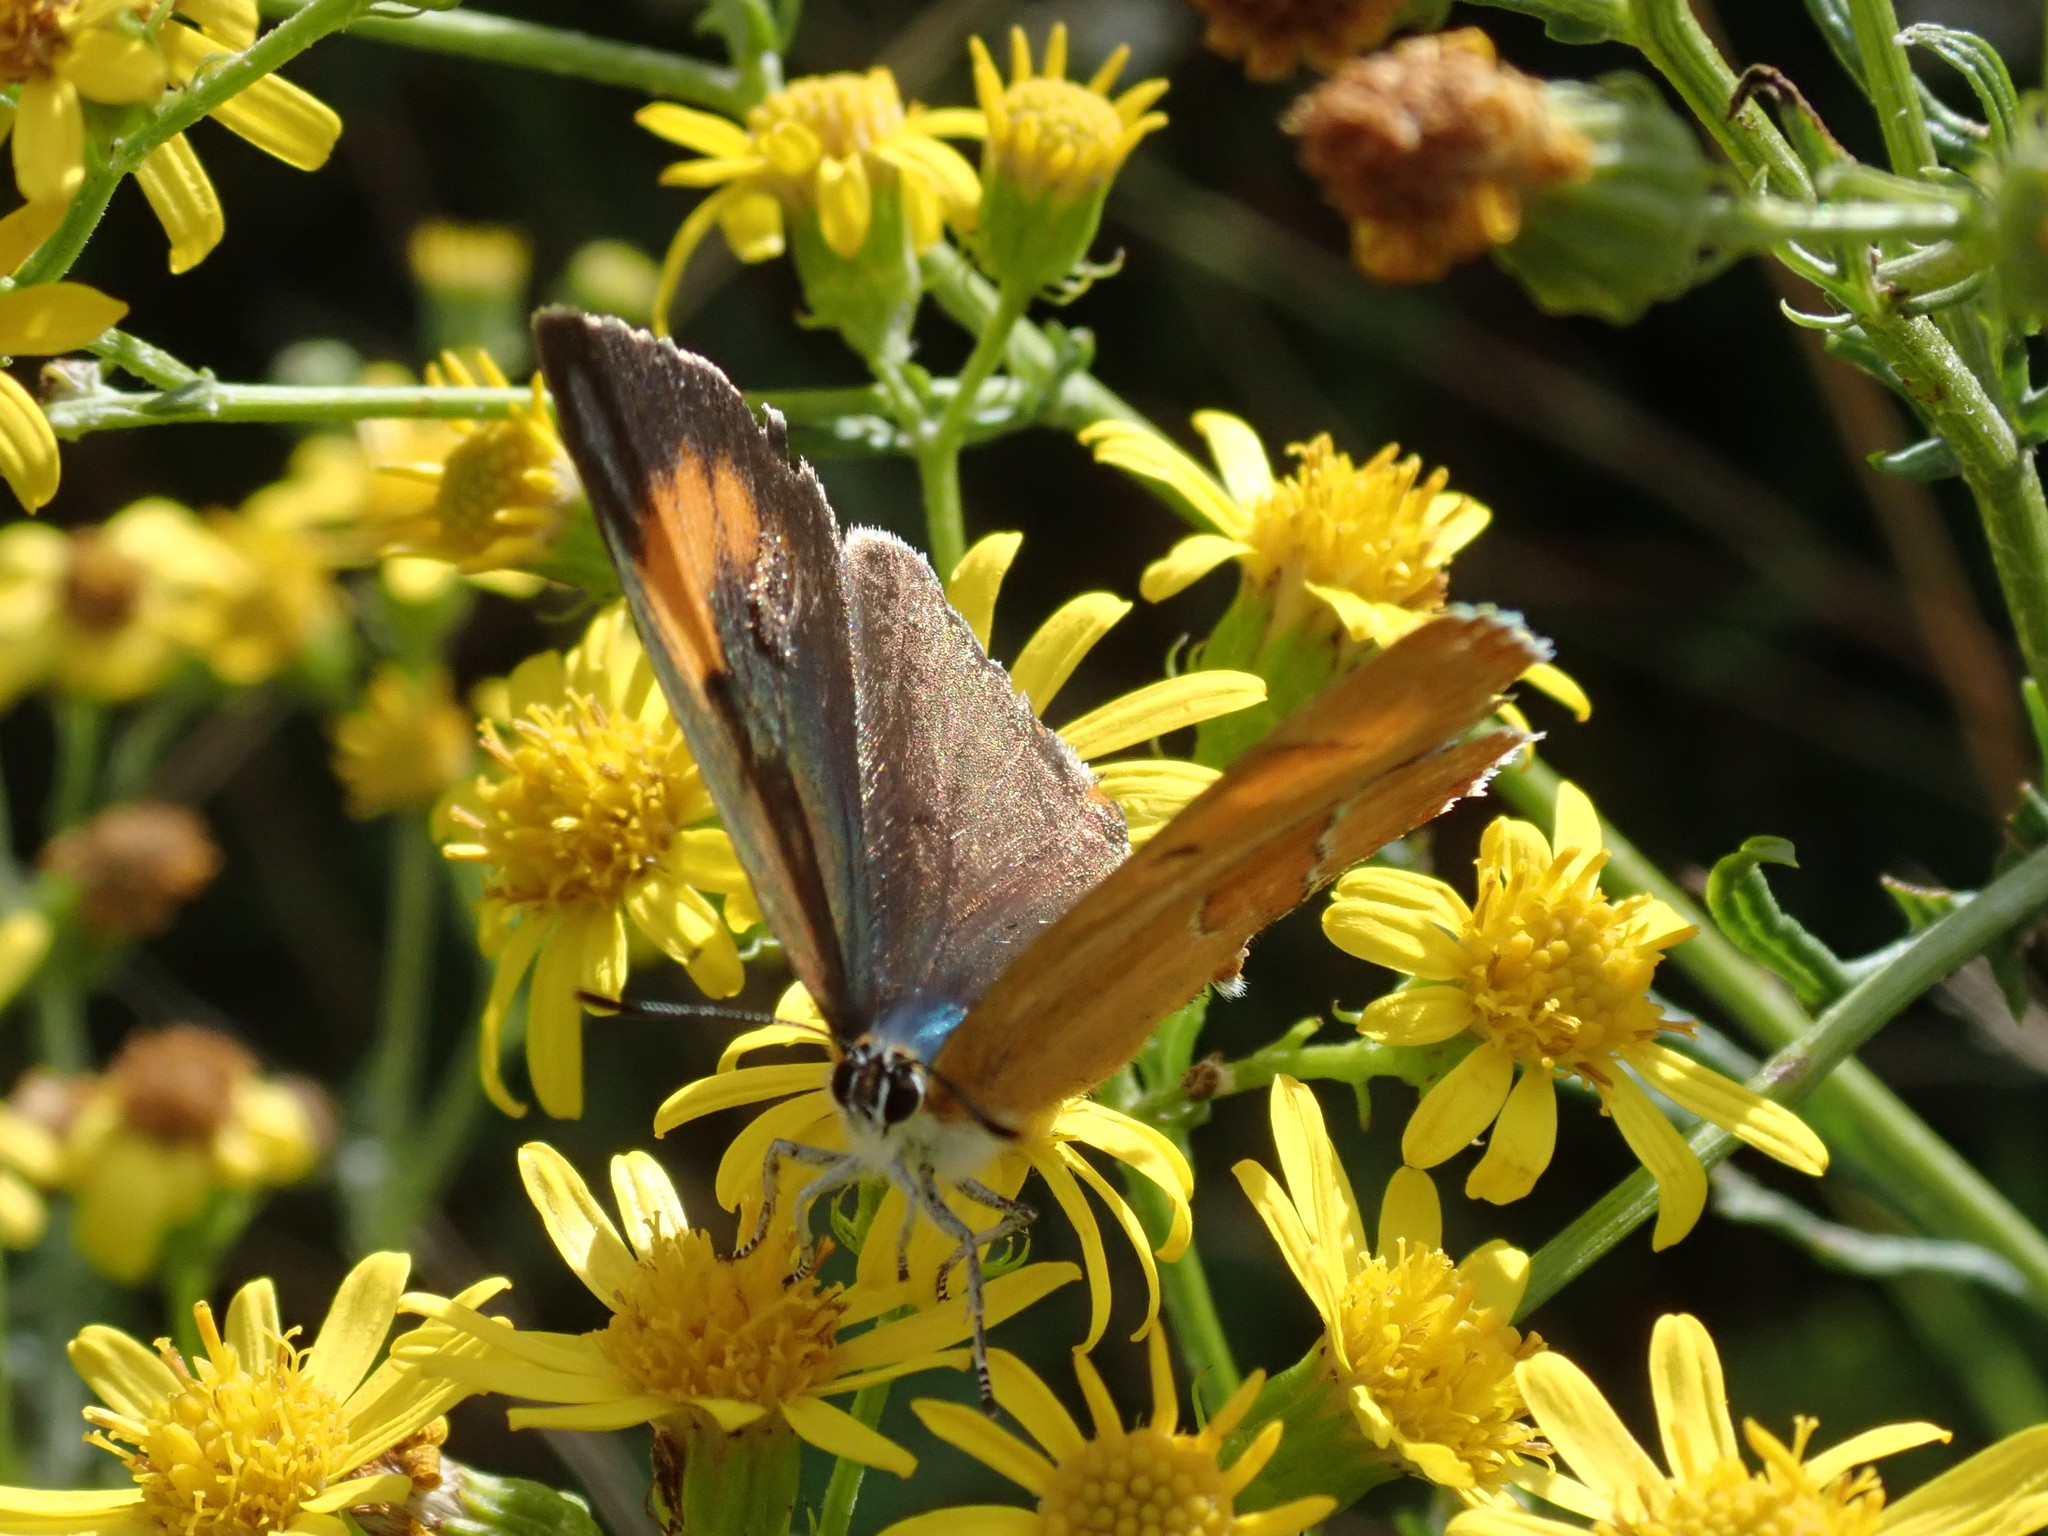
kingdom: Animalia
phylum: Arthropoda
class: Insecta
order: Lepidoptera
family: Lycaenidae
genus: Thecla
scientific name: Thecla betulae
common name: Brown hairstreak
